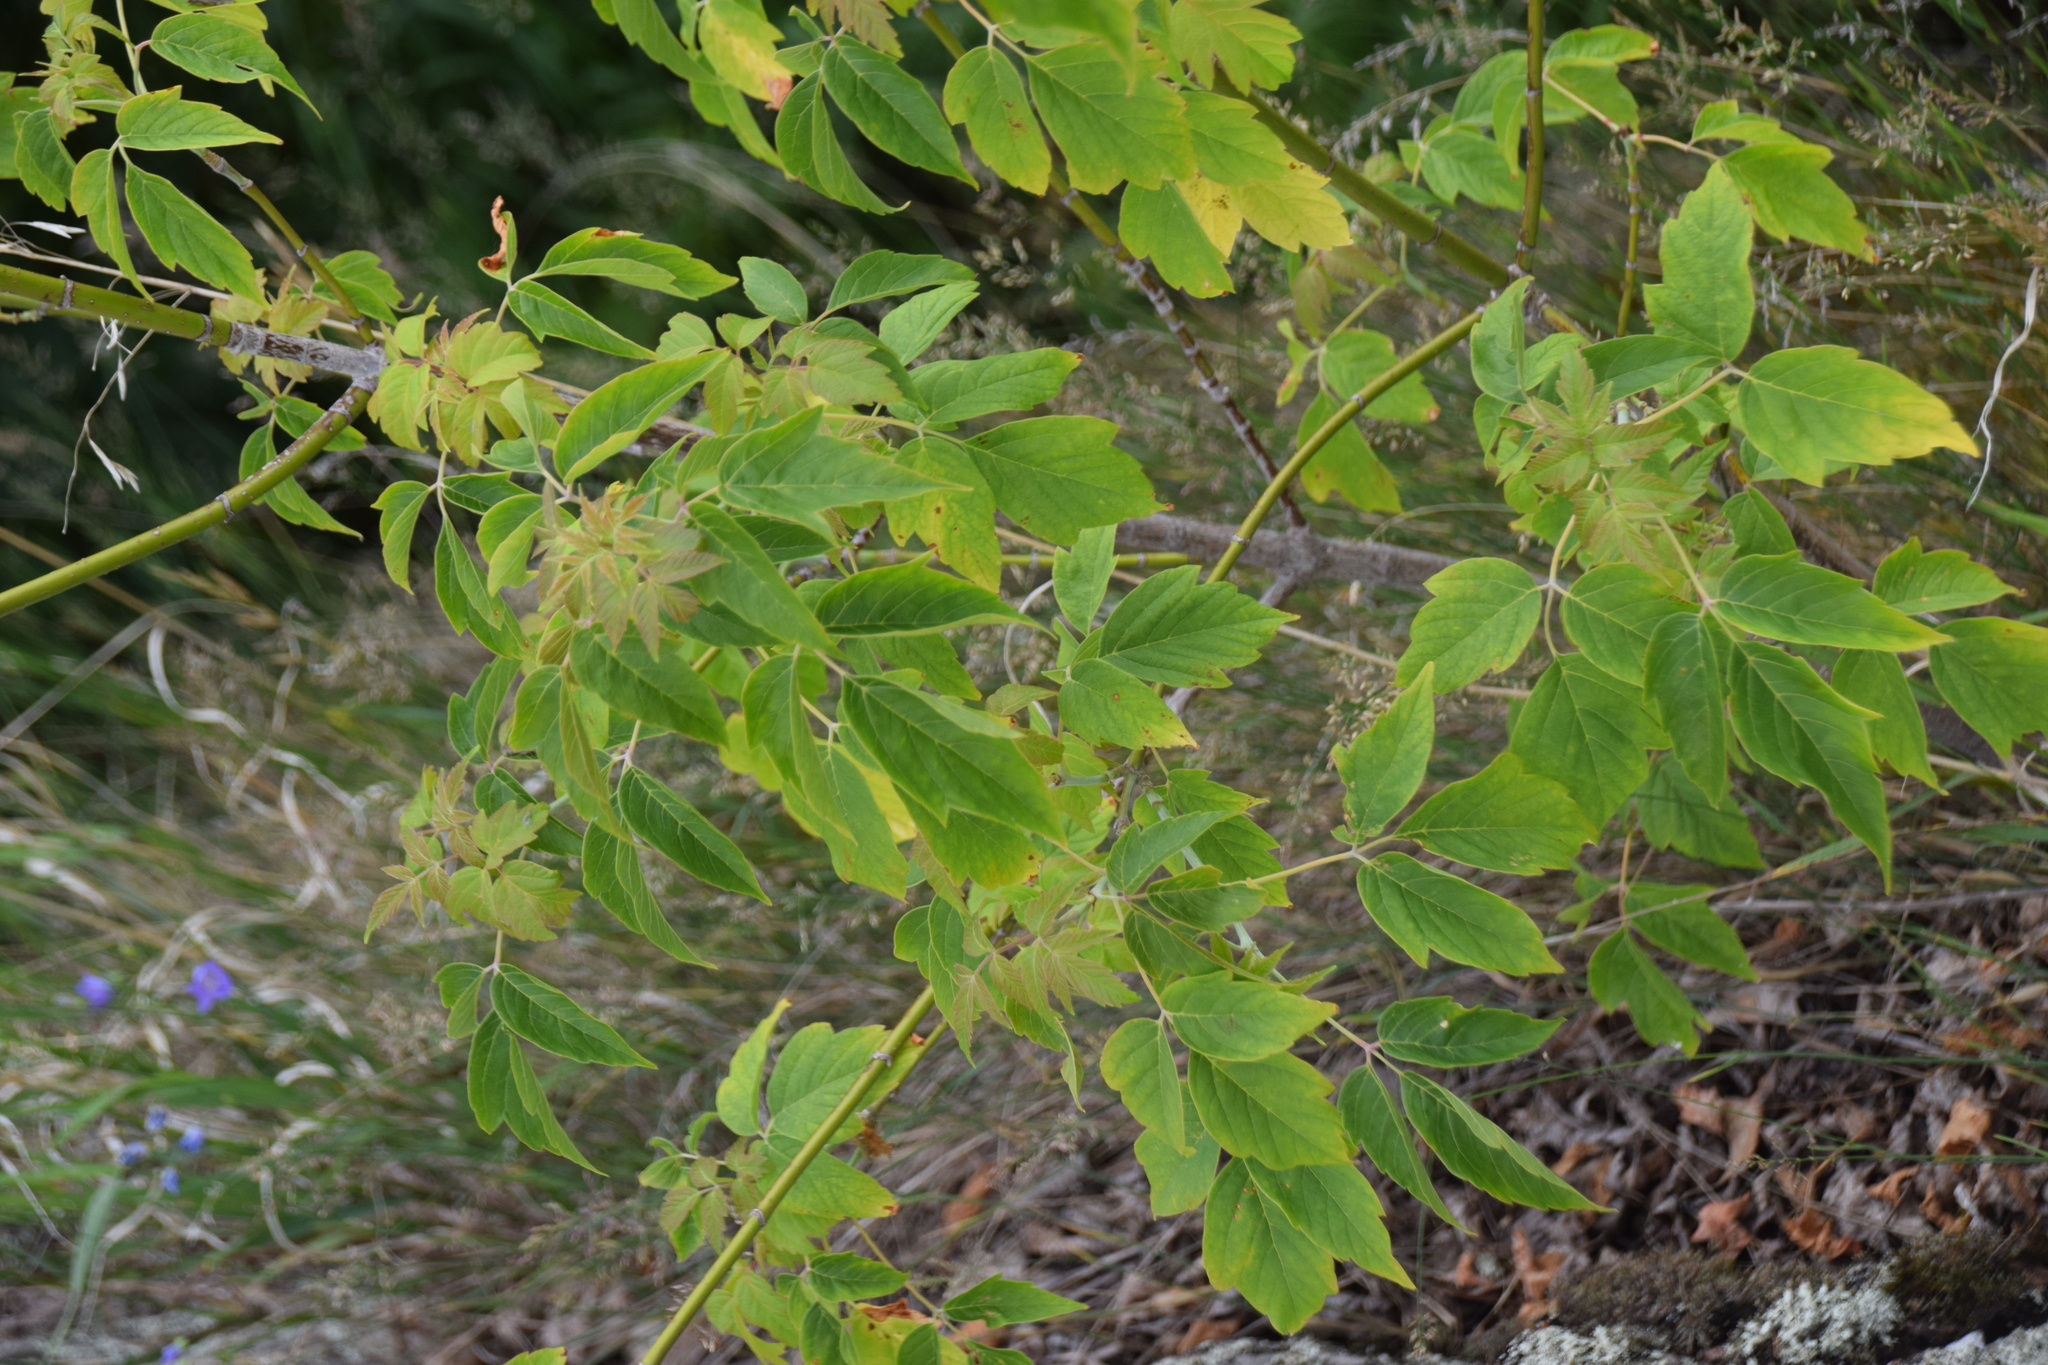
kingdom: Plantae
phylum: Tracheophyta
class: Magnoliopsida
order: Sapindales
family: Sapindaceae
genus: Acer
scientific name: Acer negundo
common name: Ashleaf maple
